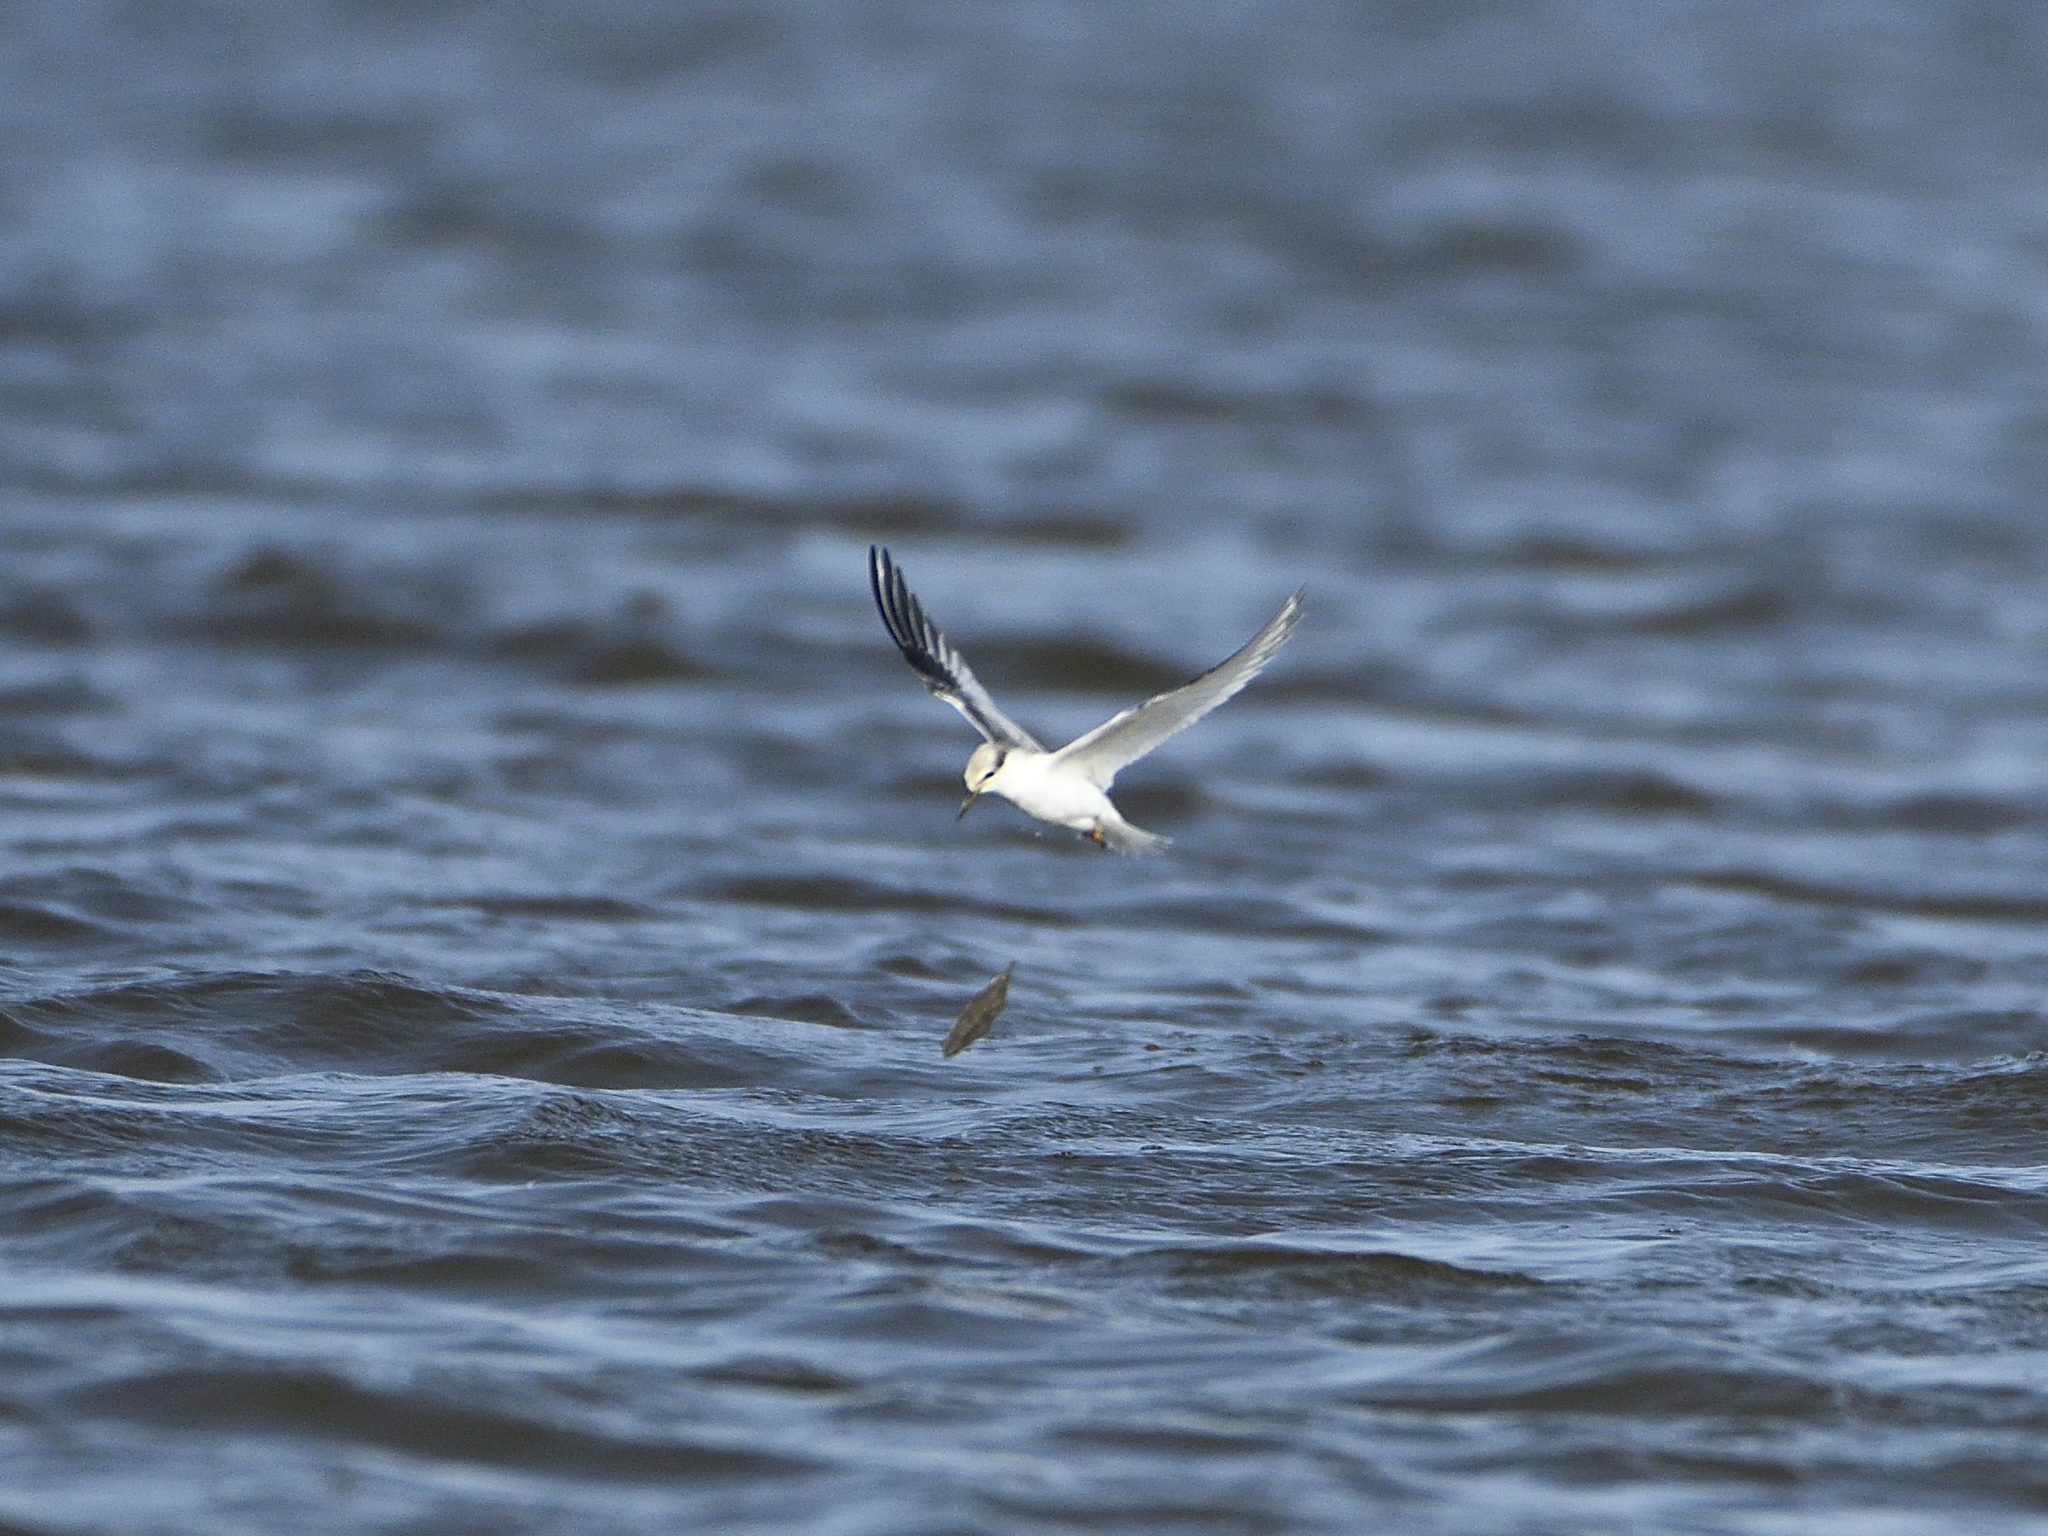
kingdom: Animalia
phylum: Chordata
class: Aves
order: Charadriiformes
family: Laridae
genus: Sternula
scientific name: Sternula antillarum
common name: Least tern
